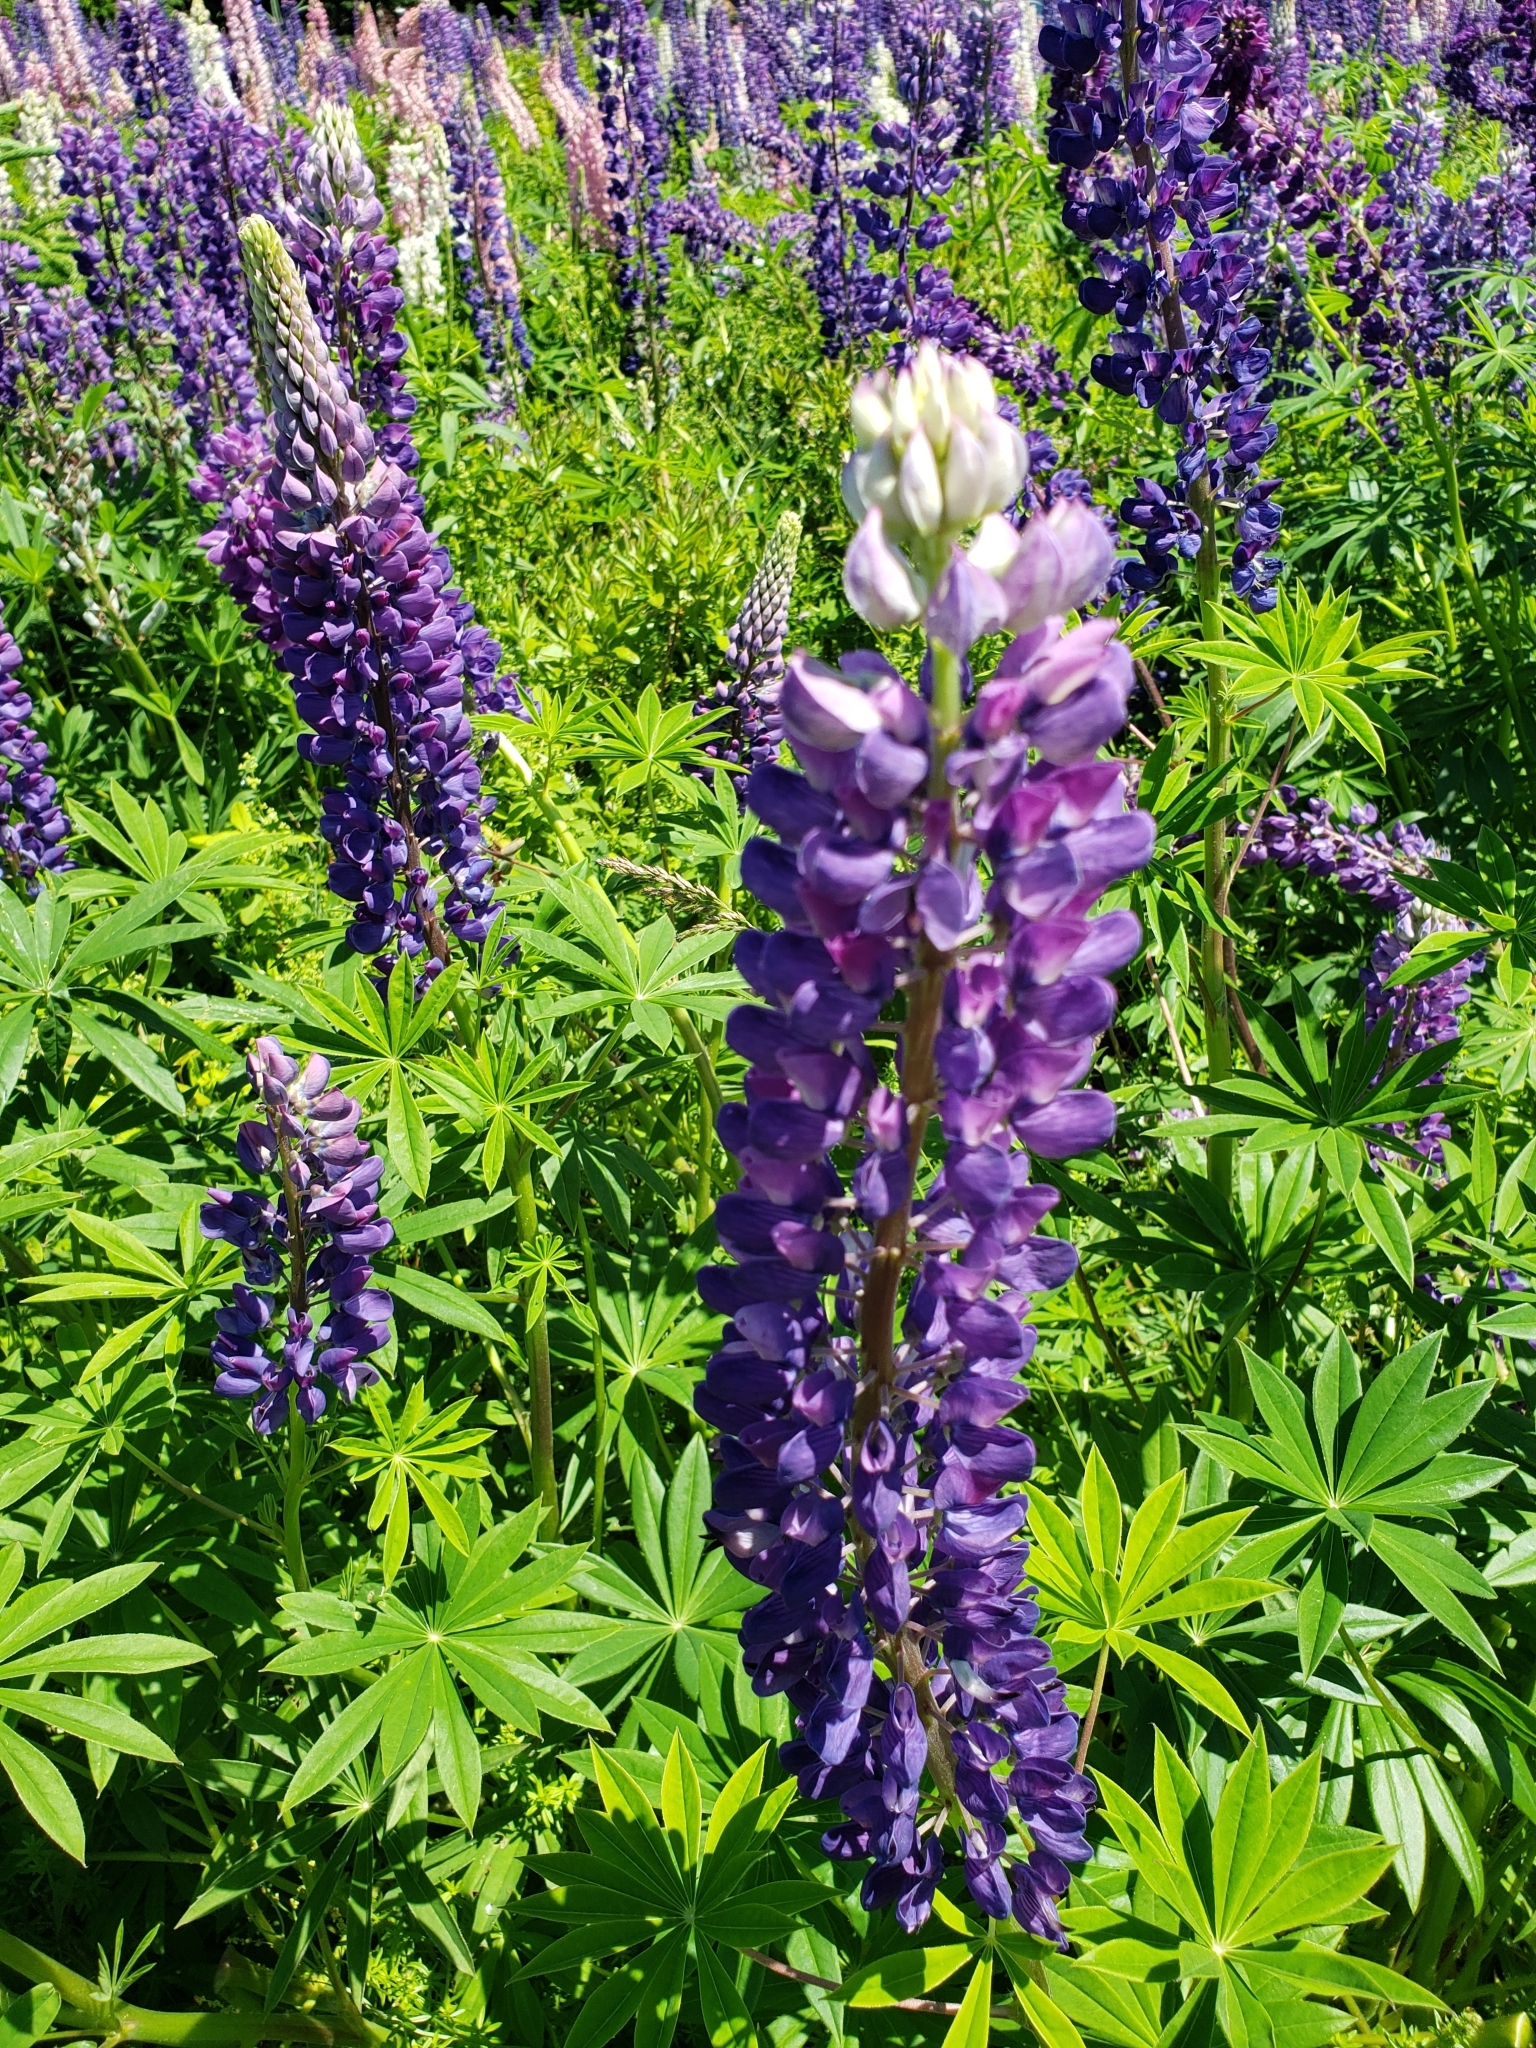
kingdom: Plantae
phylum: Tracheophyta
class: Magnoliopsida
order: Fabales
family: Fabaceae
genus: Lupinus
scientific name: Lupinus polyphyllus
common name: Garden lupin
